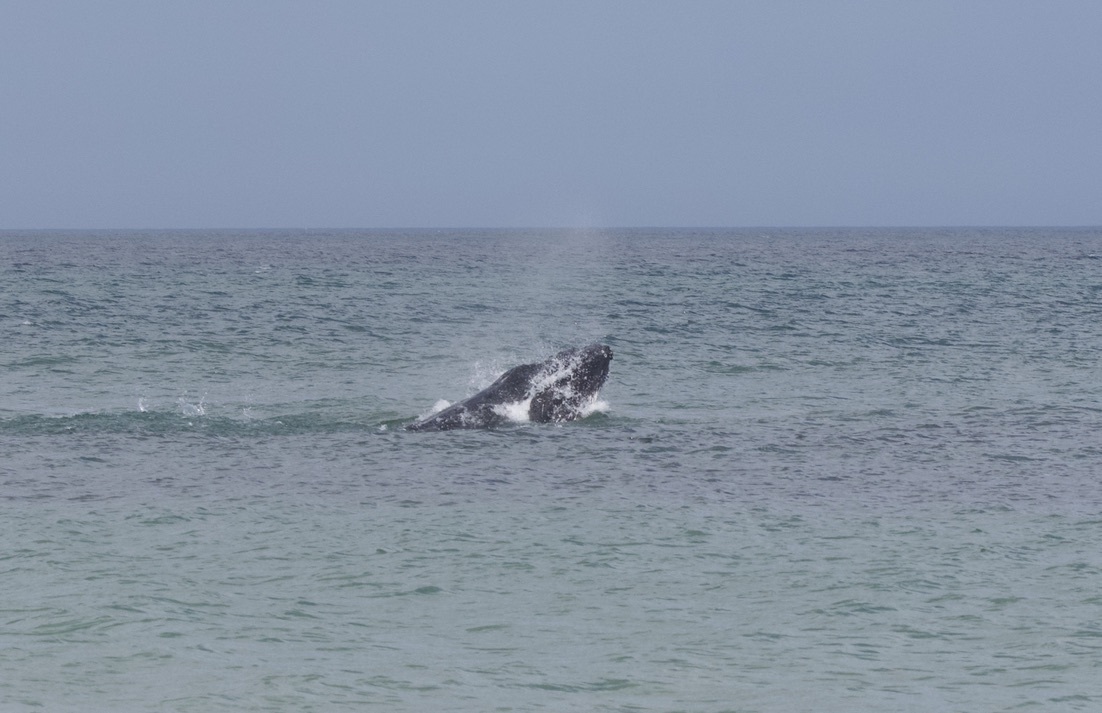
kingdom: Animalia
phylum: Chordata
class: Mammalia
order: Cetacea
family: Balaenopteridae
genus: Megaptera
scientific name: Megaptera novaeangliae
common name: Humpback whale
